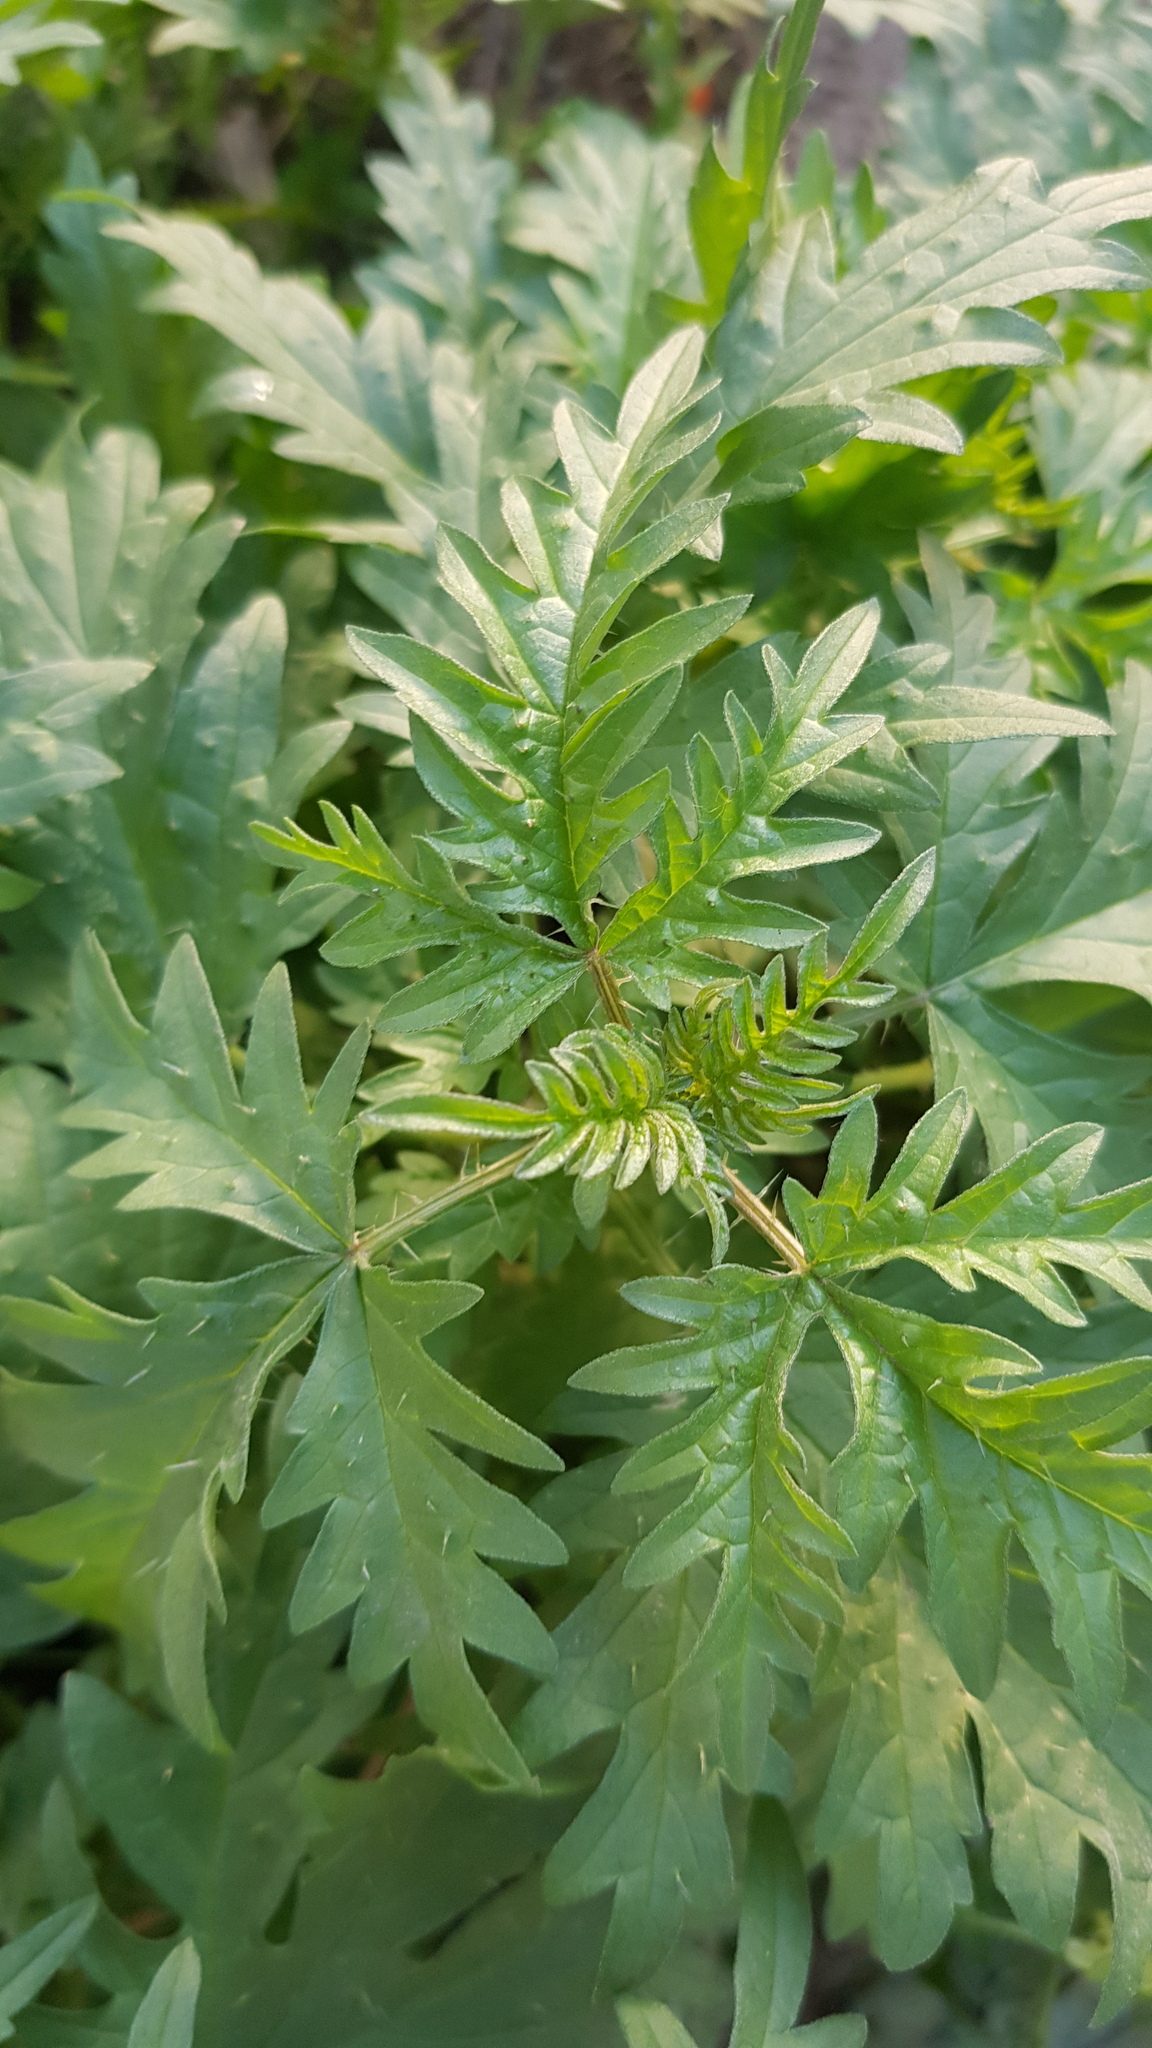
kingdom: Plantae
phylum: Tracheophyta
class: Magnoliopsida
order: Rosales
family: Urticaceae
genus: Urtica
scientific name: Urtica cannabina
